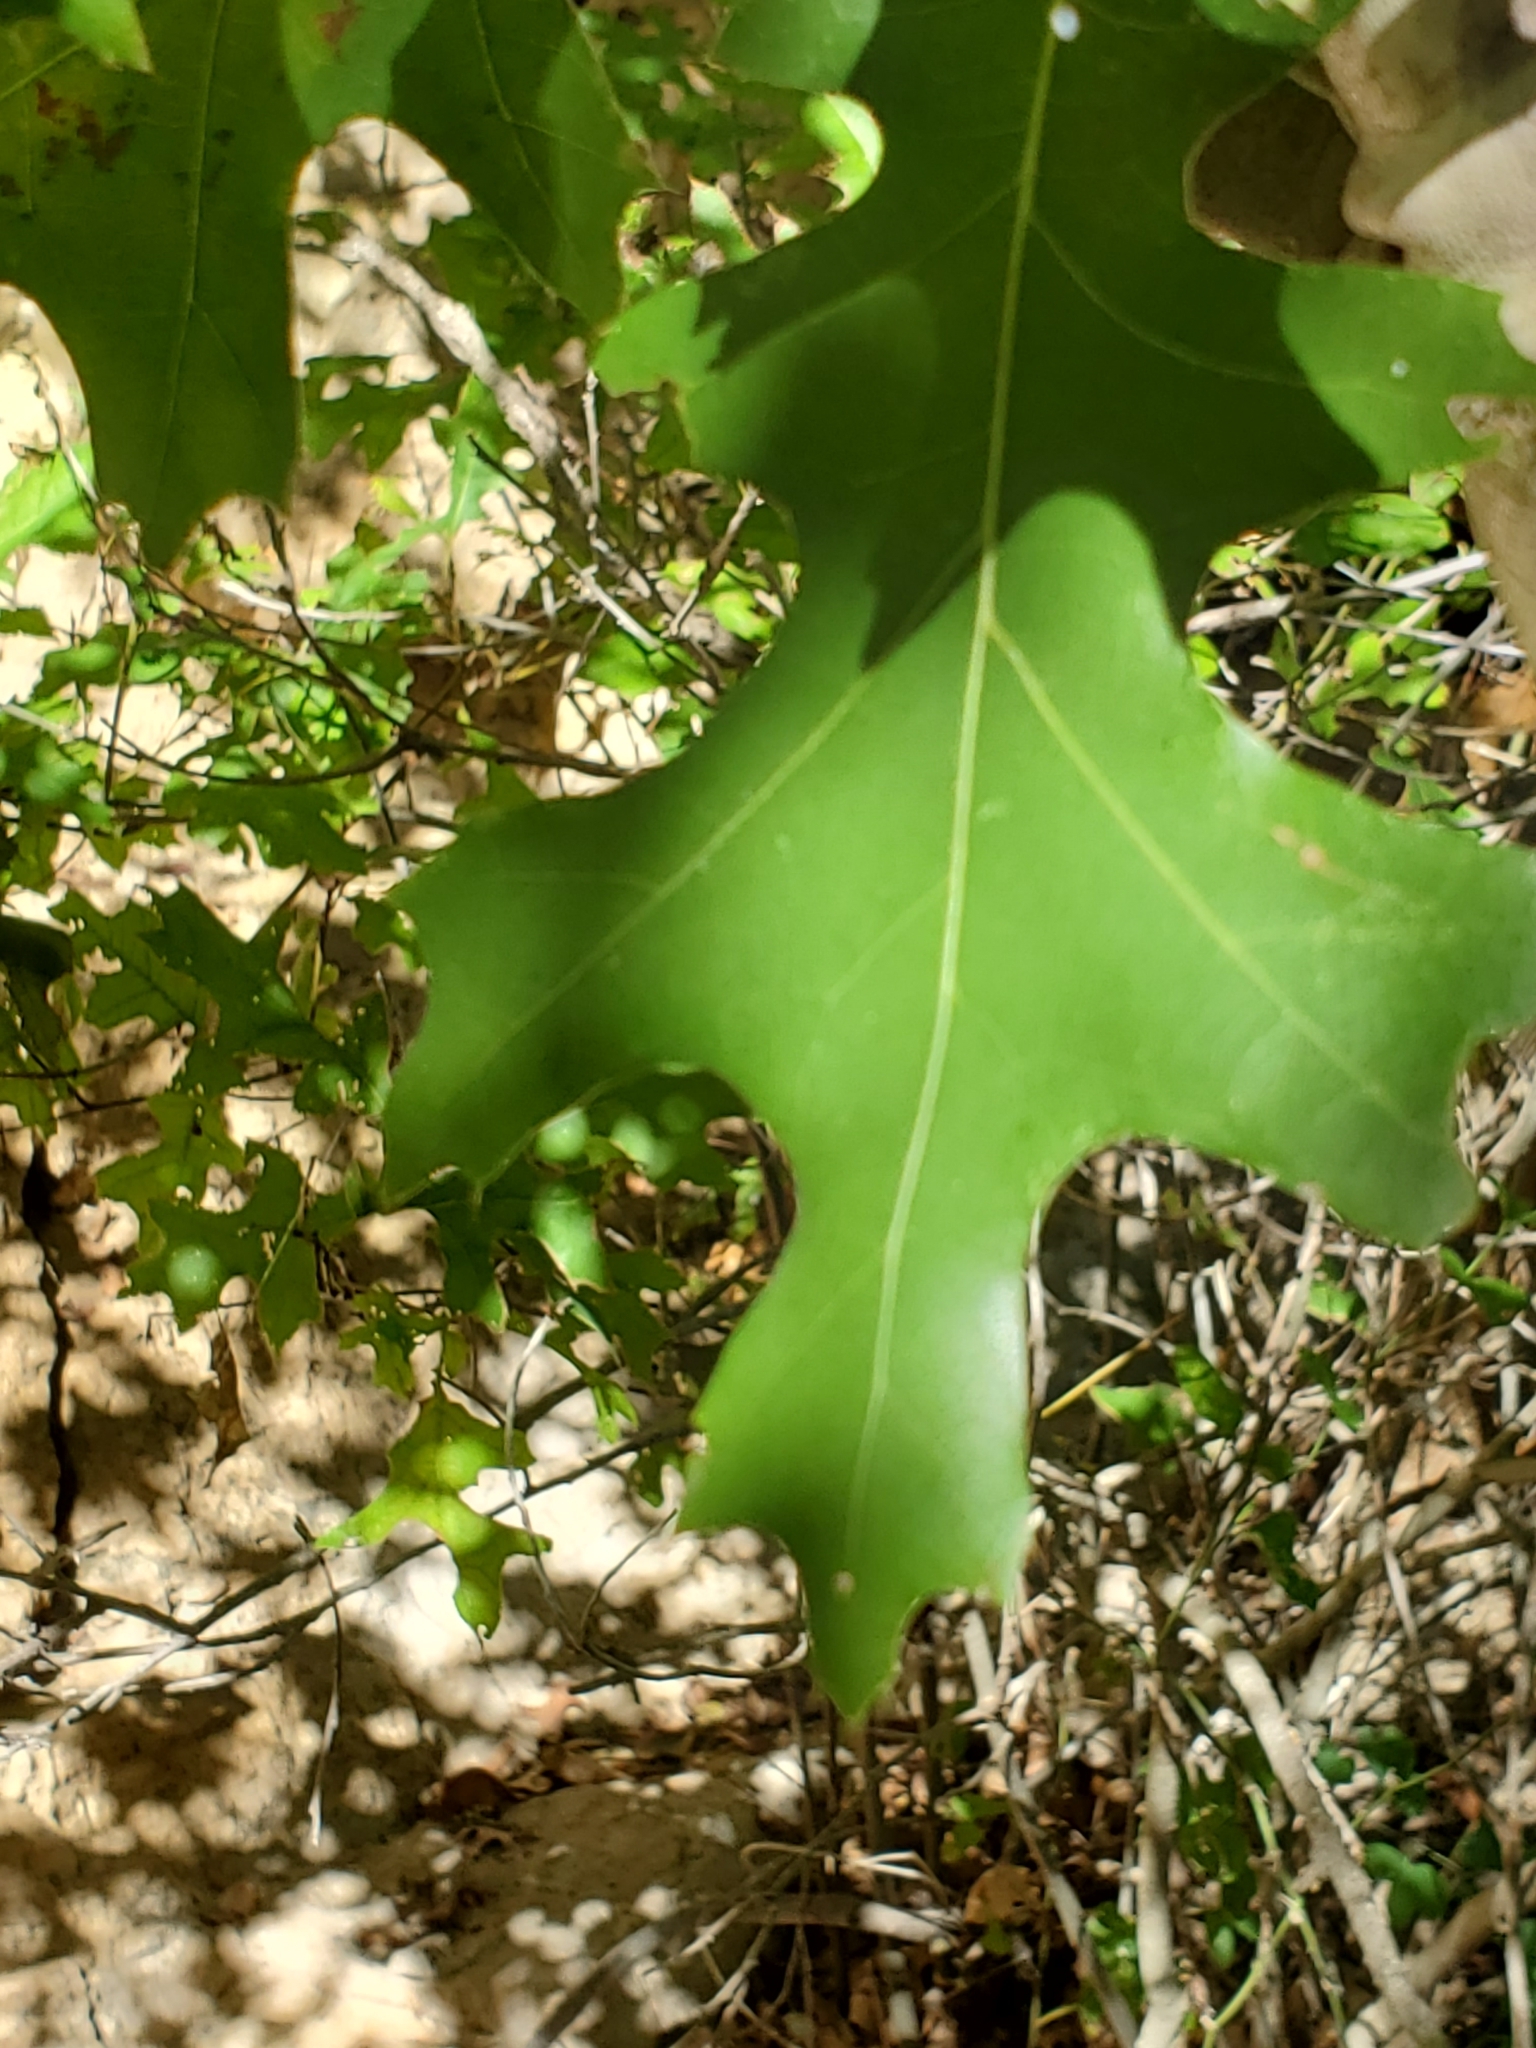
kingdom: Plantae
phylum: Tracheophyta
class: Magnoliopsida
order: Fagales
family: Fagaceae
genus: Quercus
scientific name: Quercus buckleyi
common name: Buckley oak
